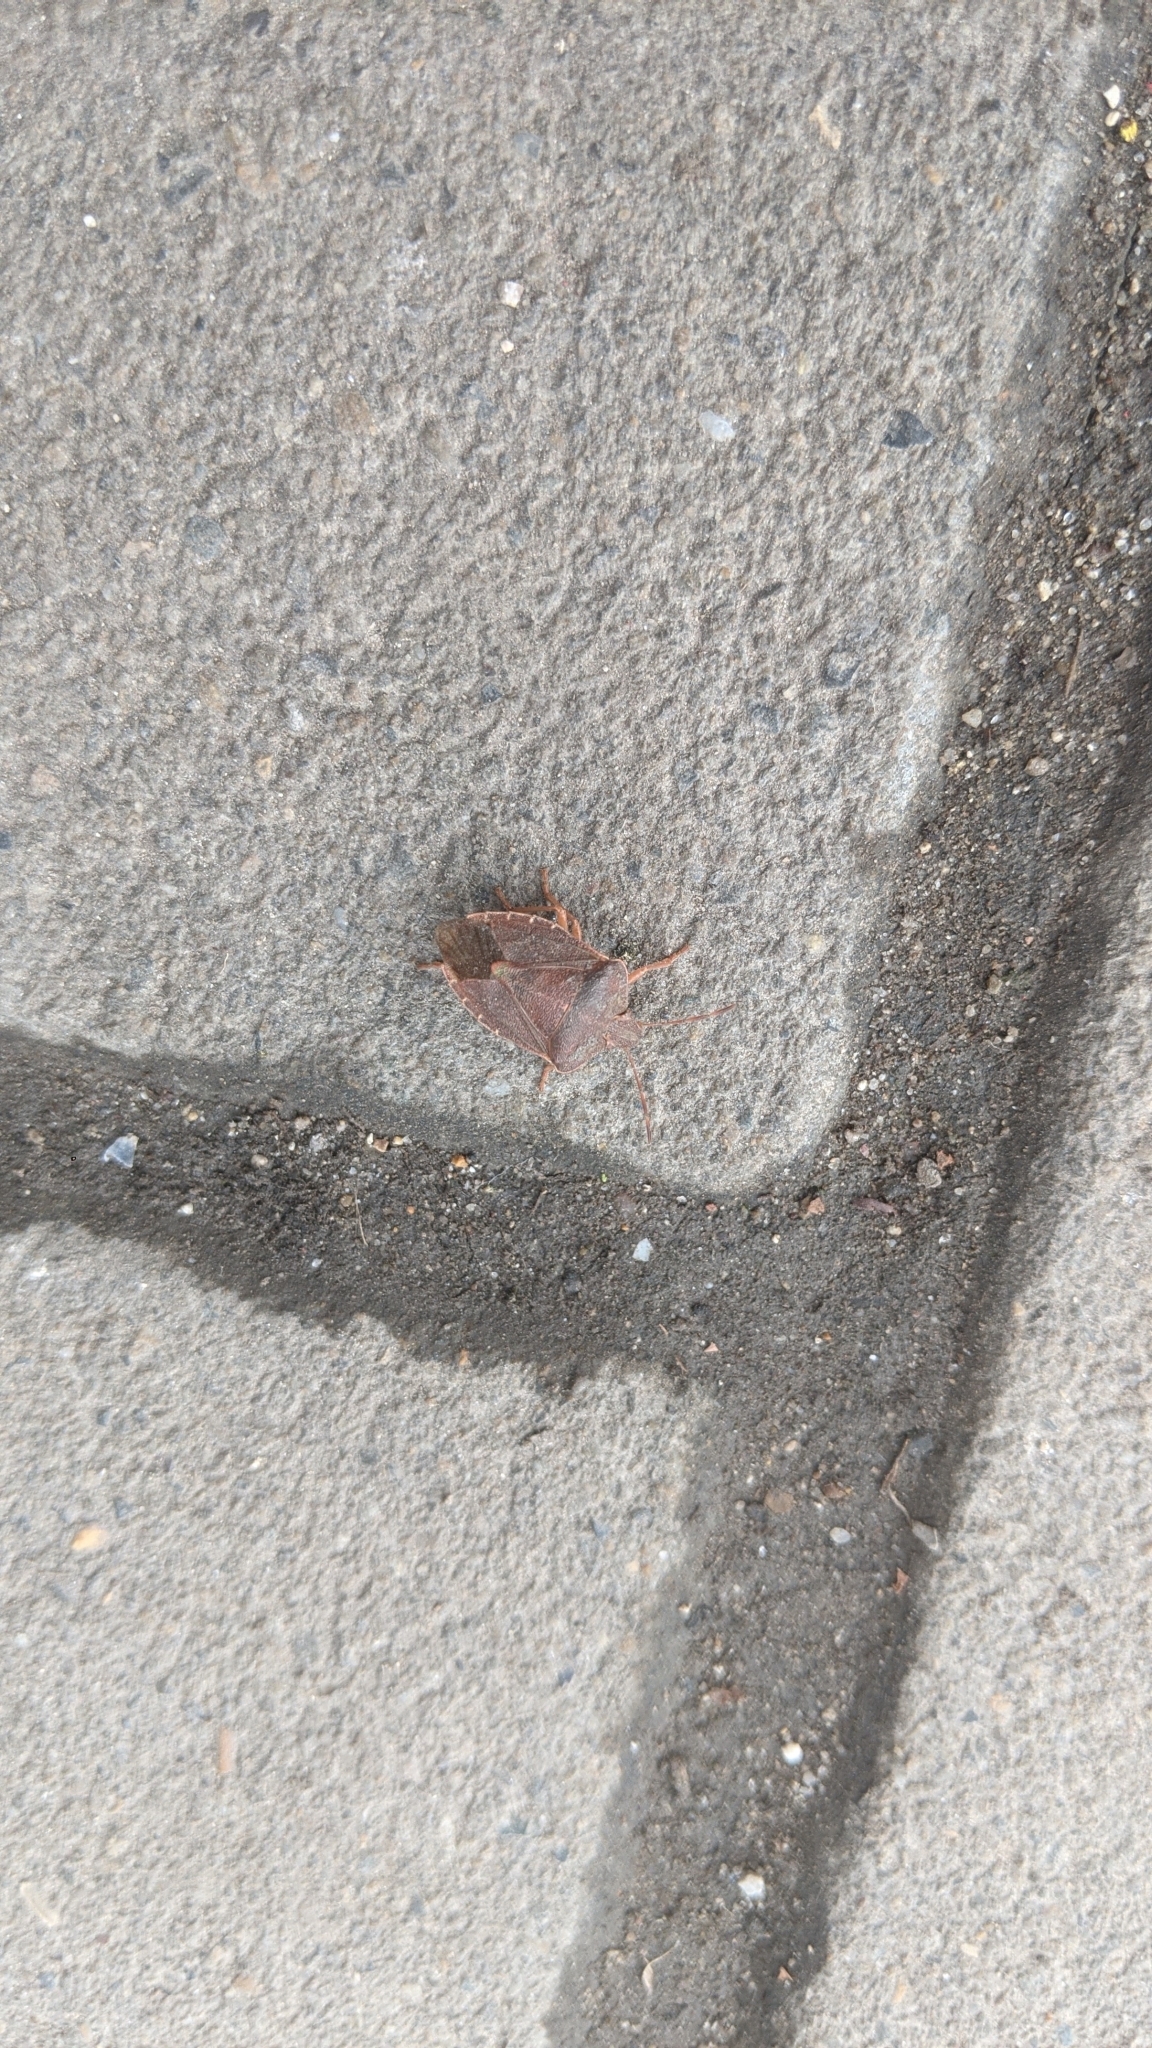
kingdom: Animalia
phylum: Arthropoda
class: Insecta
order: Hemiptera
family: Pentatomidae
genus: Palomena
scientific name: Palomena prasina
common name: Green shieldbug
